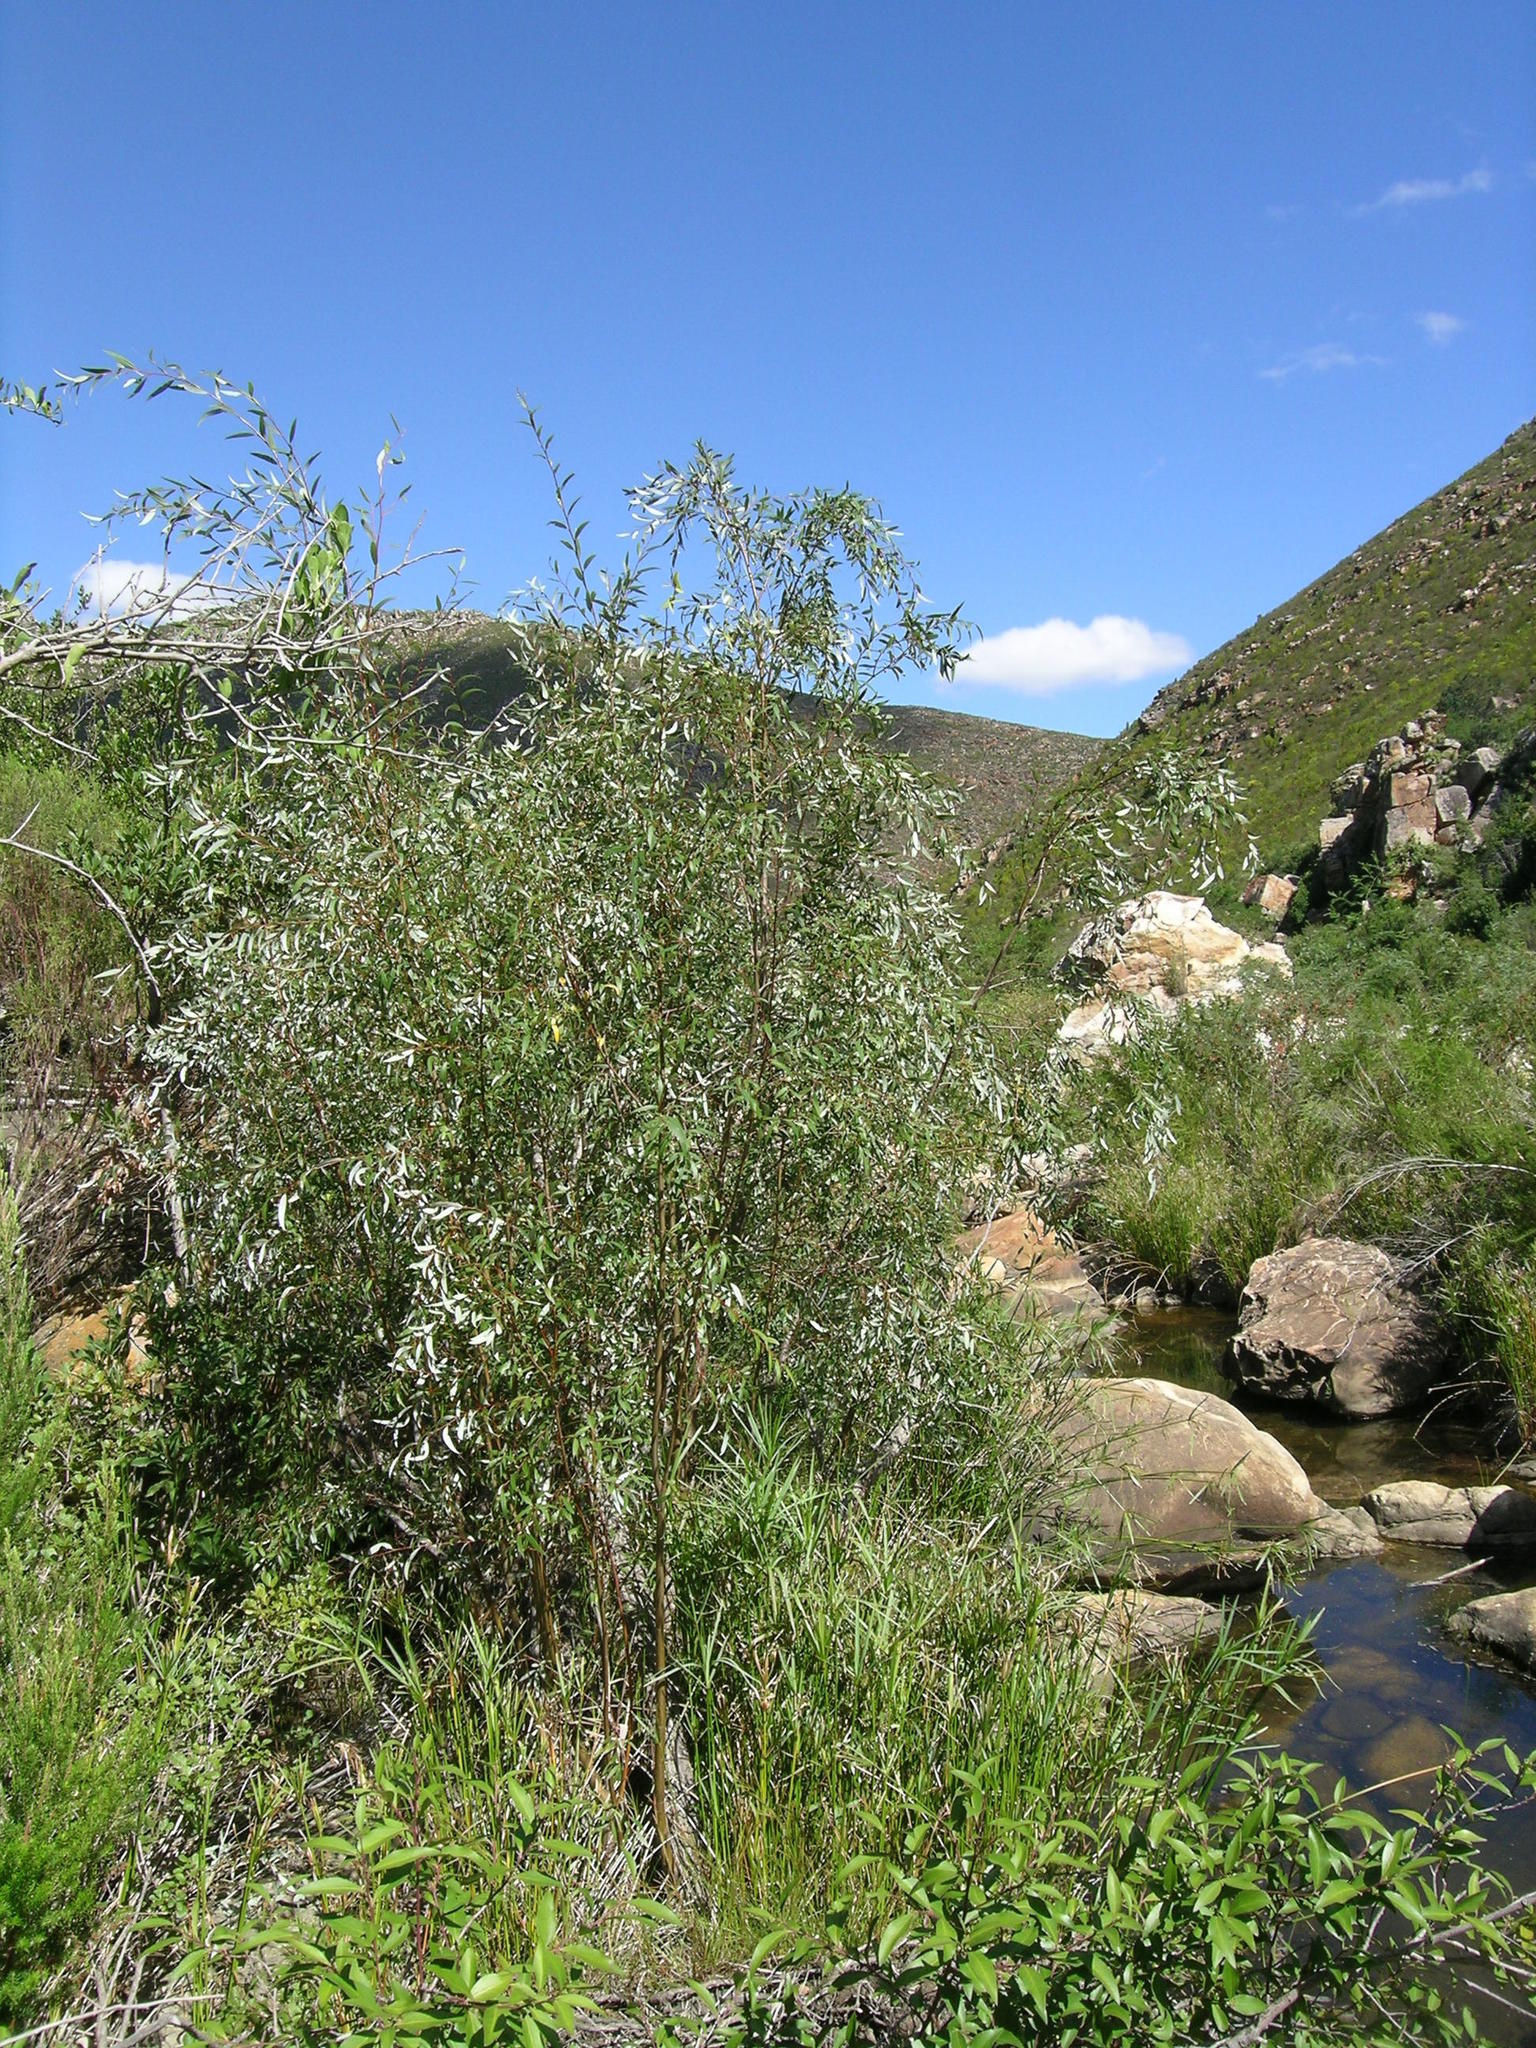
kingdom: Plantae
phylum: Tracheophyta
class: Magnoliopsida
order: Malpighiales
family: Salicaceae
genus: Salix
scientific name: Salix mucronata
